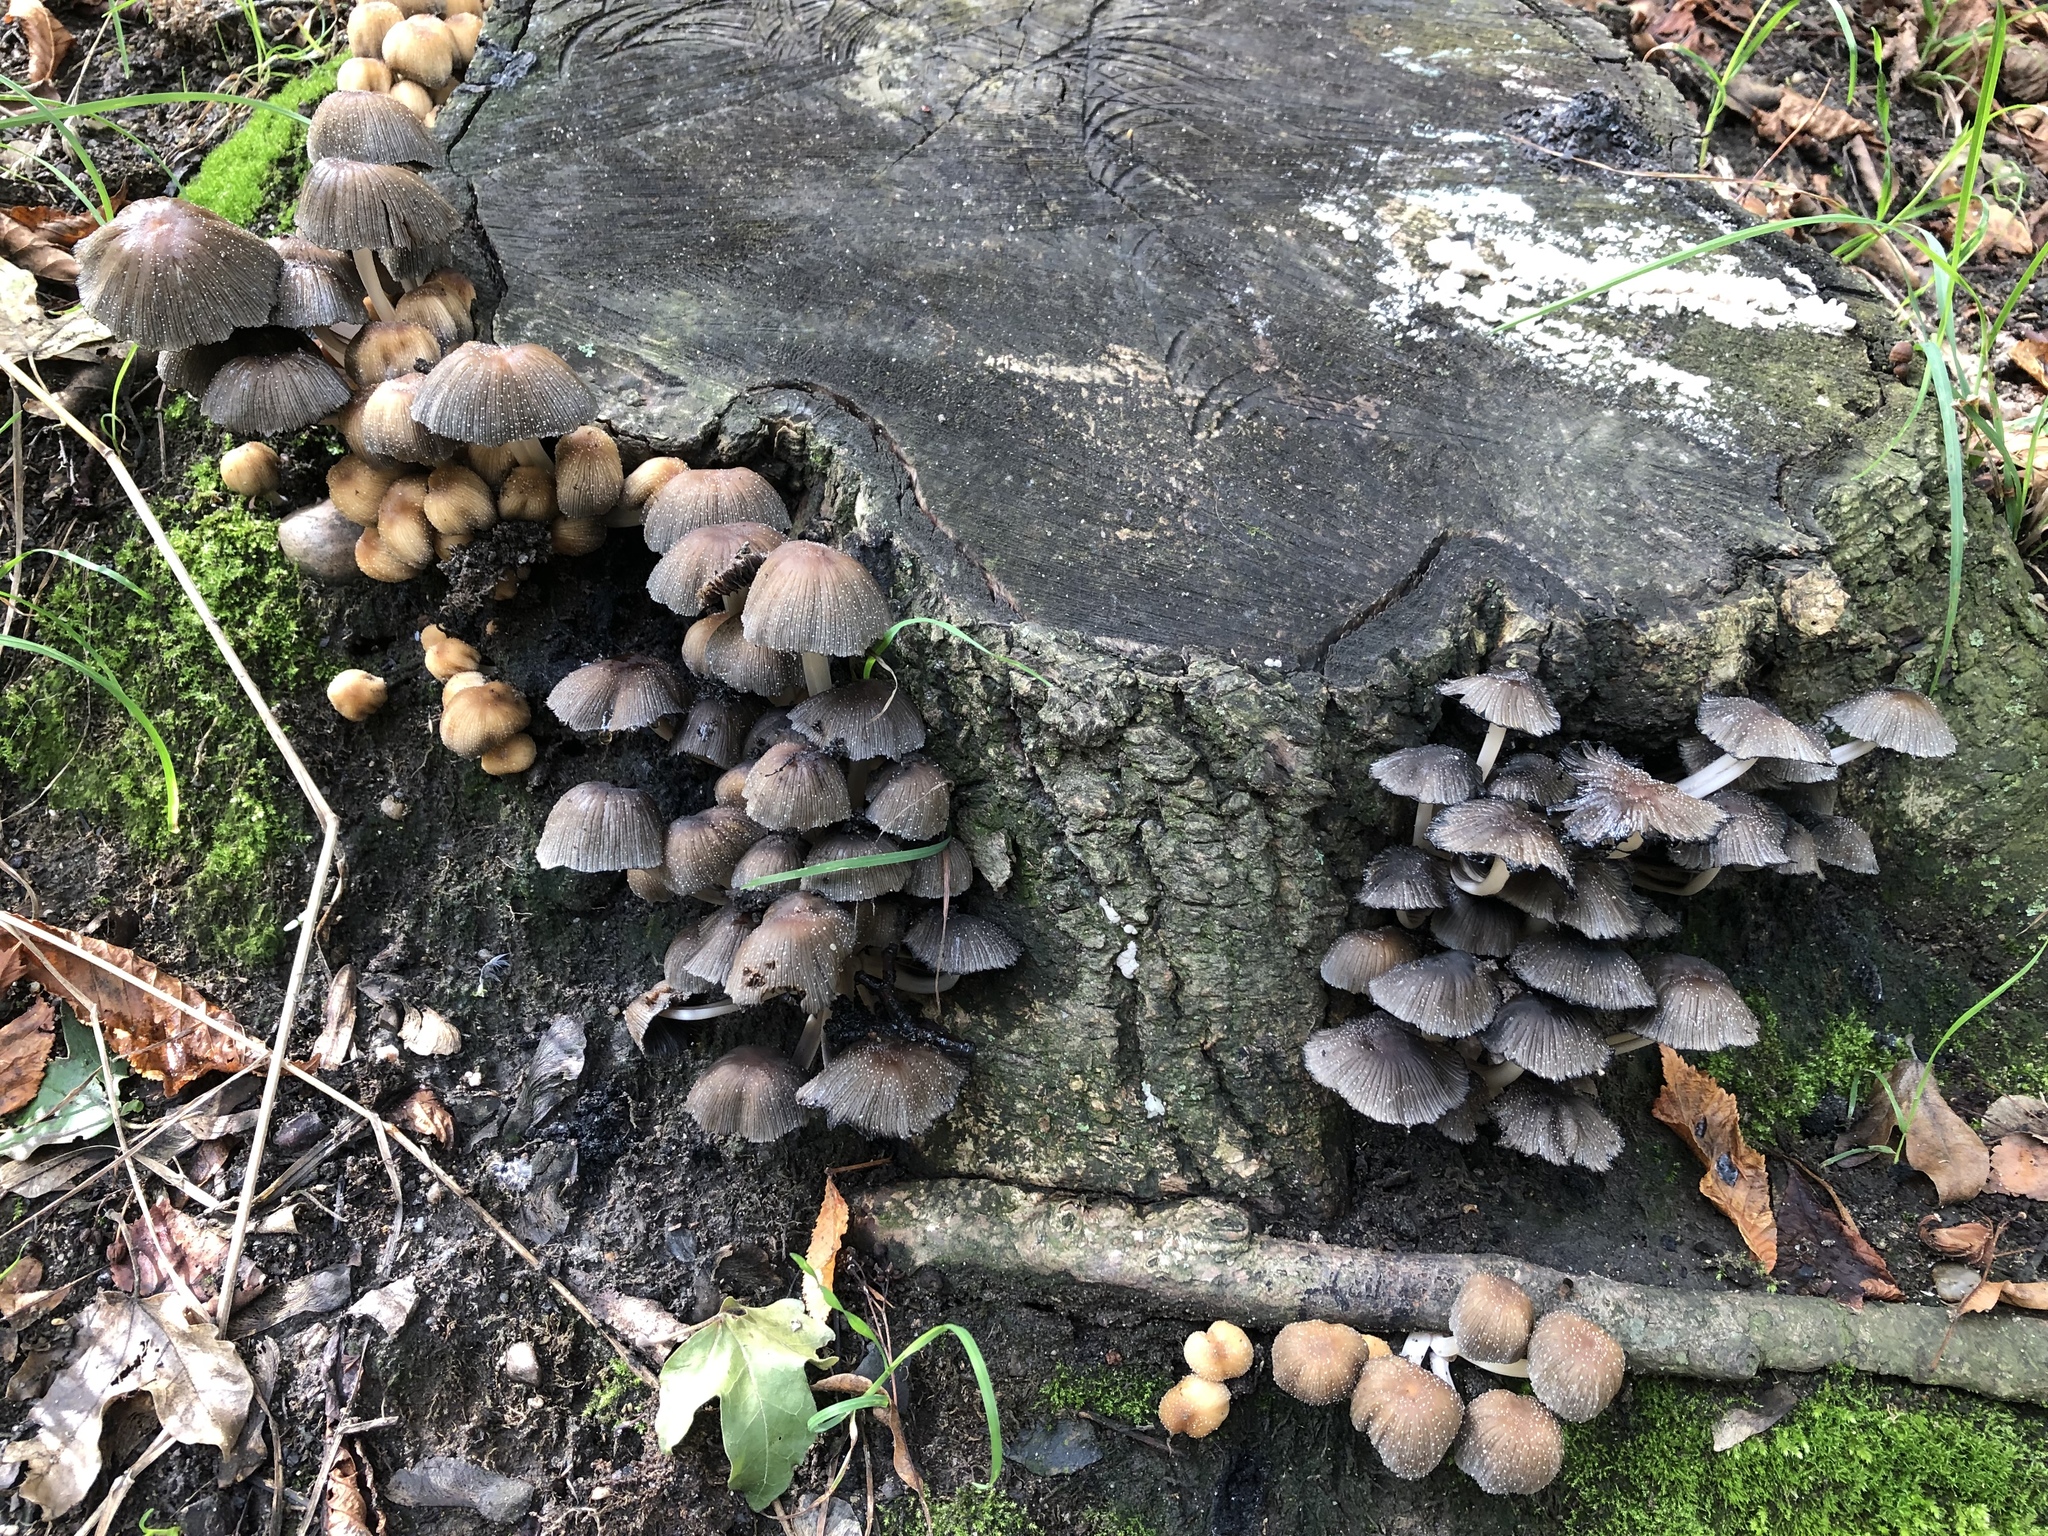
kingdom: Fungi
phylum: Basidiomycota
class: Agaricomycetes
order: Agaricales
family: Psathyrellaceae
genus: Coprinellus
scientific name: Coprinellus micaceus
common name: Glistening ink-cap
